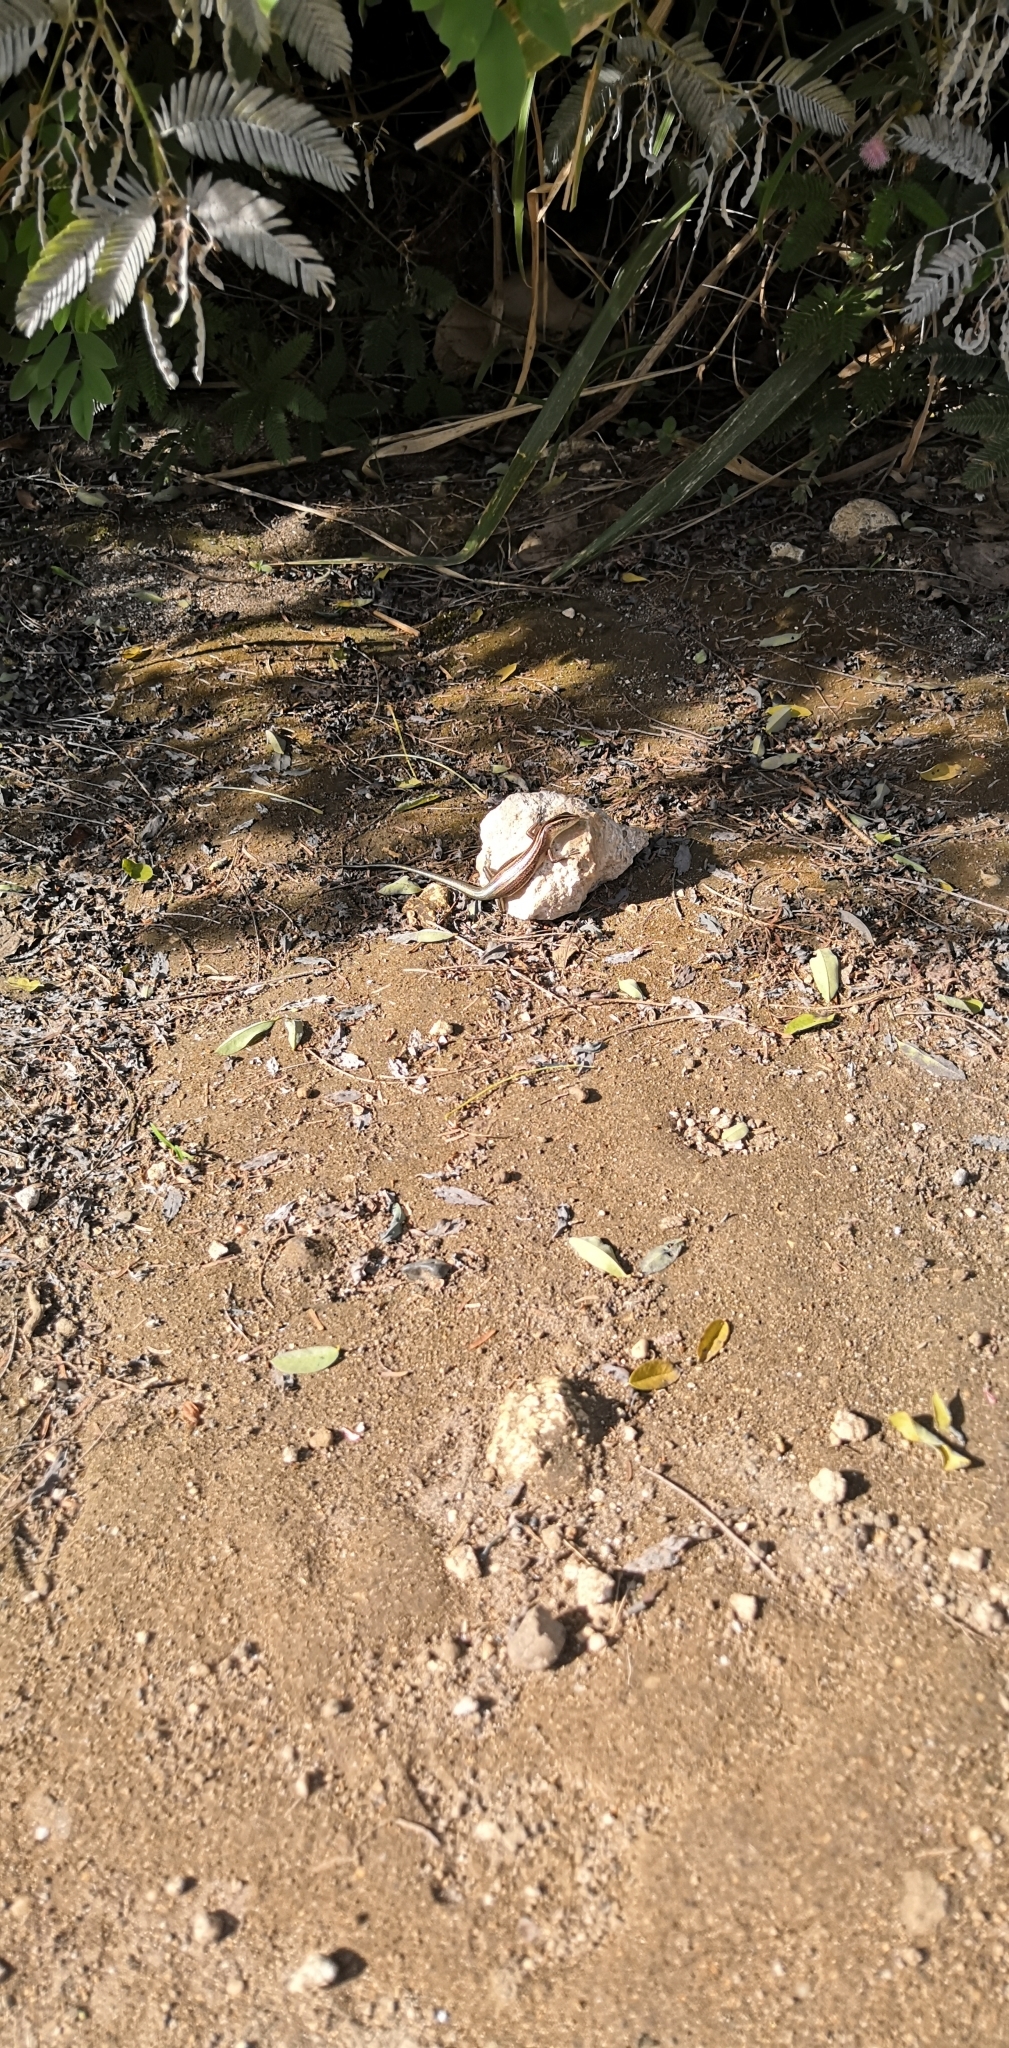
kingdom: Animalia
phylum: Chordata
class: Squamata
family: Scincidae
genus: Emoia
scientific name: Emoia cyanura
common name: Copper-tailed skink
